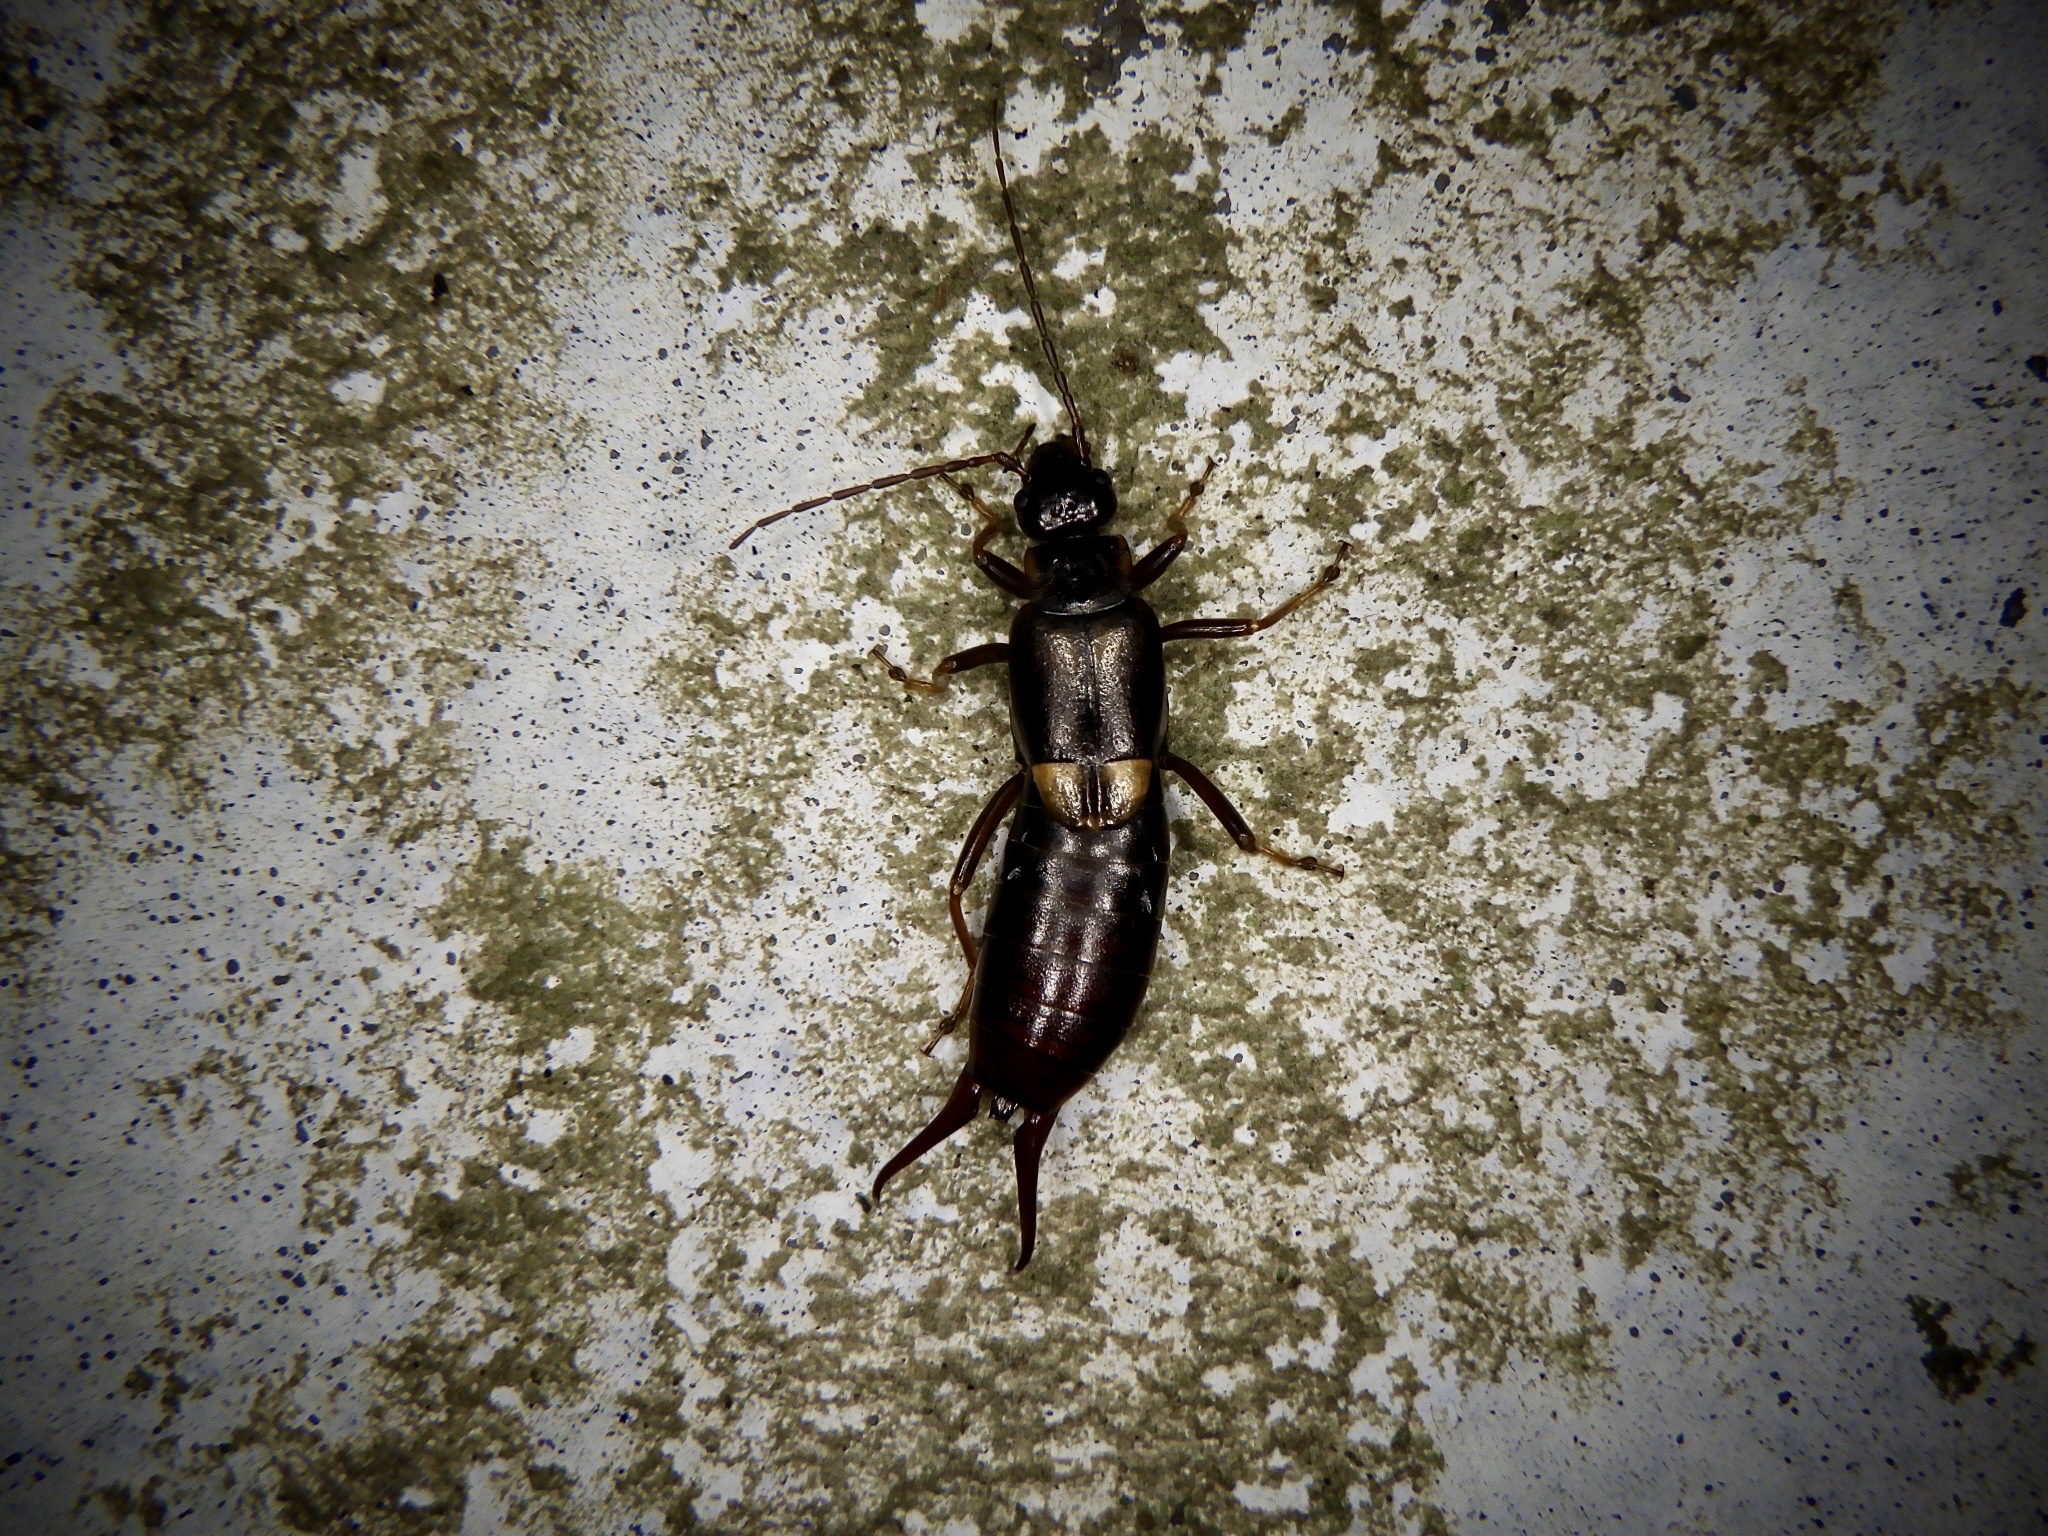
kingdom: Animalia
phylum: Arthropoda
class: Insecta
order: Dermaptera
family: Forficulidae
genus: Anechura
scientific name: Anechura harmandi
